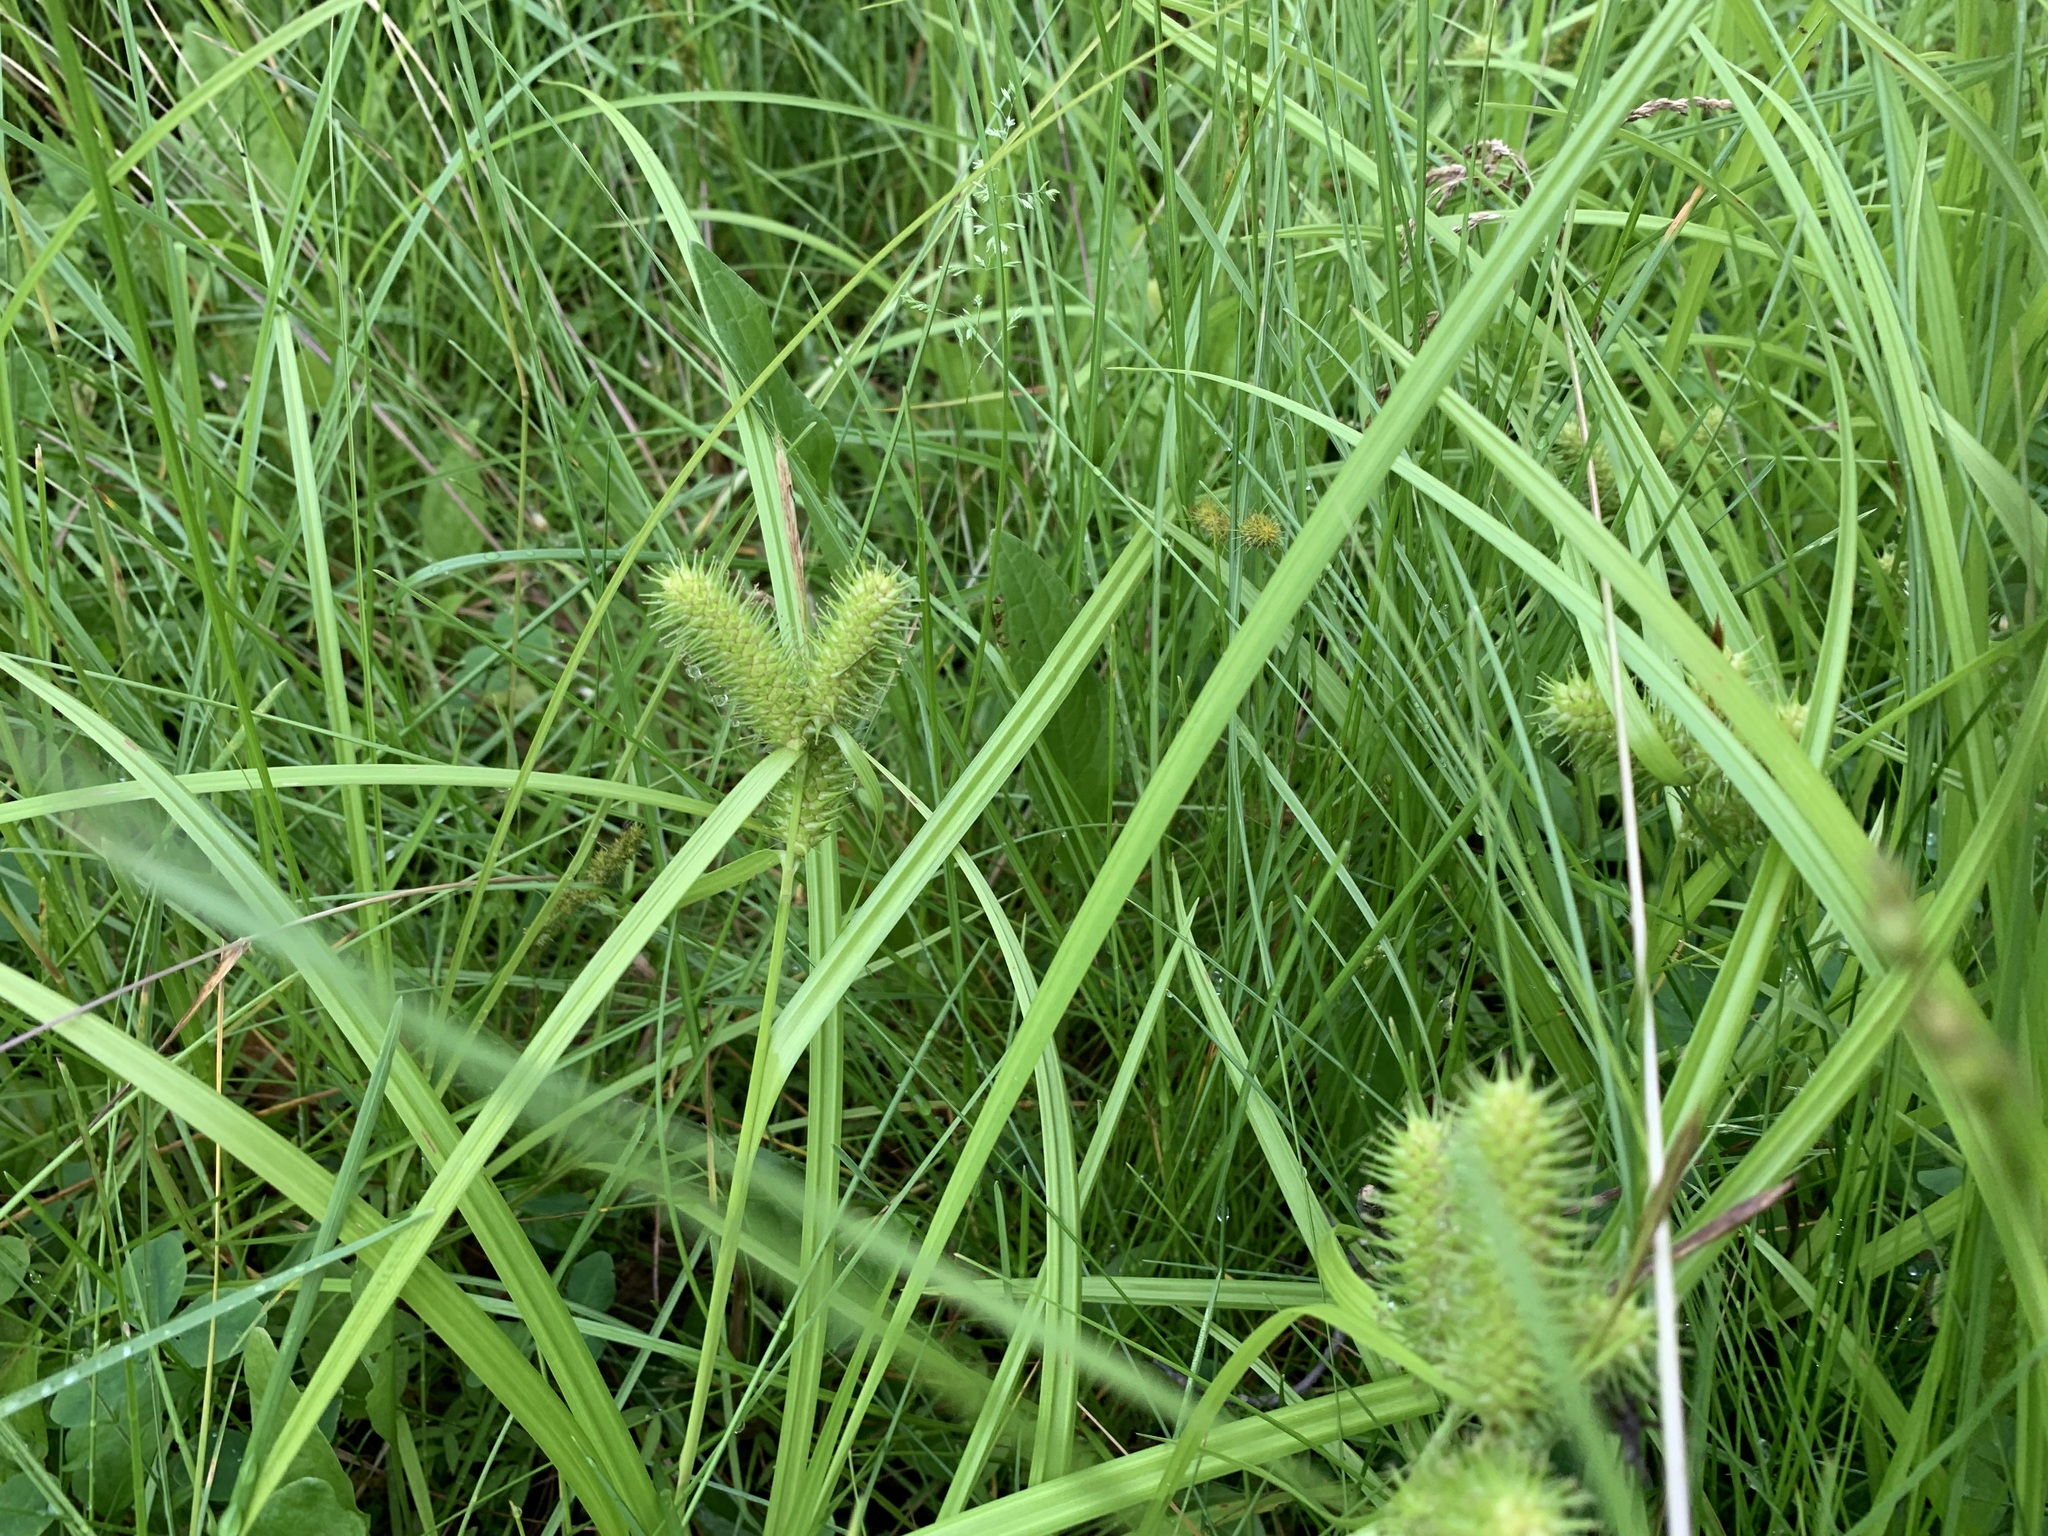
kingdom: Plantae
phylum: Tracheophyta
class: Liliopsida
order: Poales
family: Cyperaceae
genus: Carex
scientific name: Carex lurida
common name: Sallow sedge
